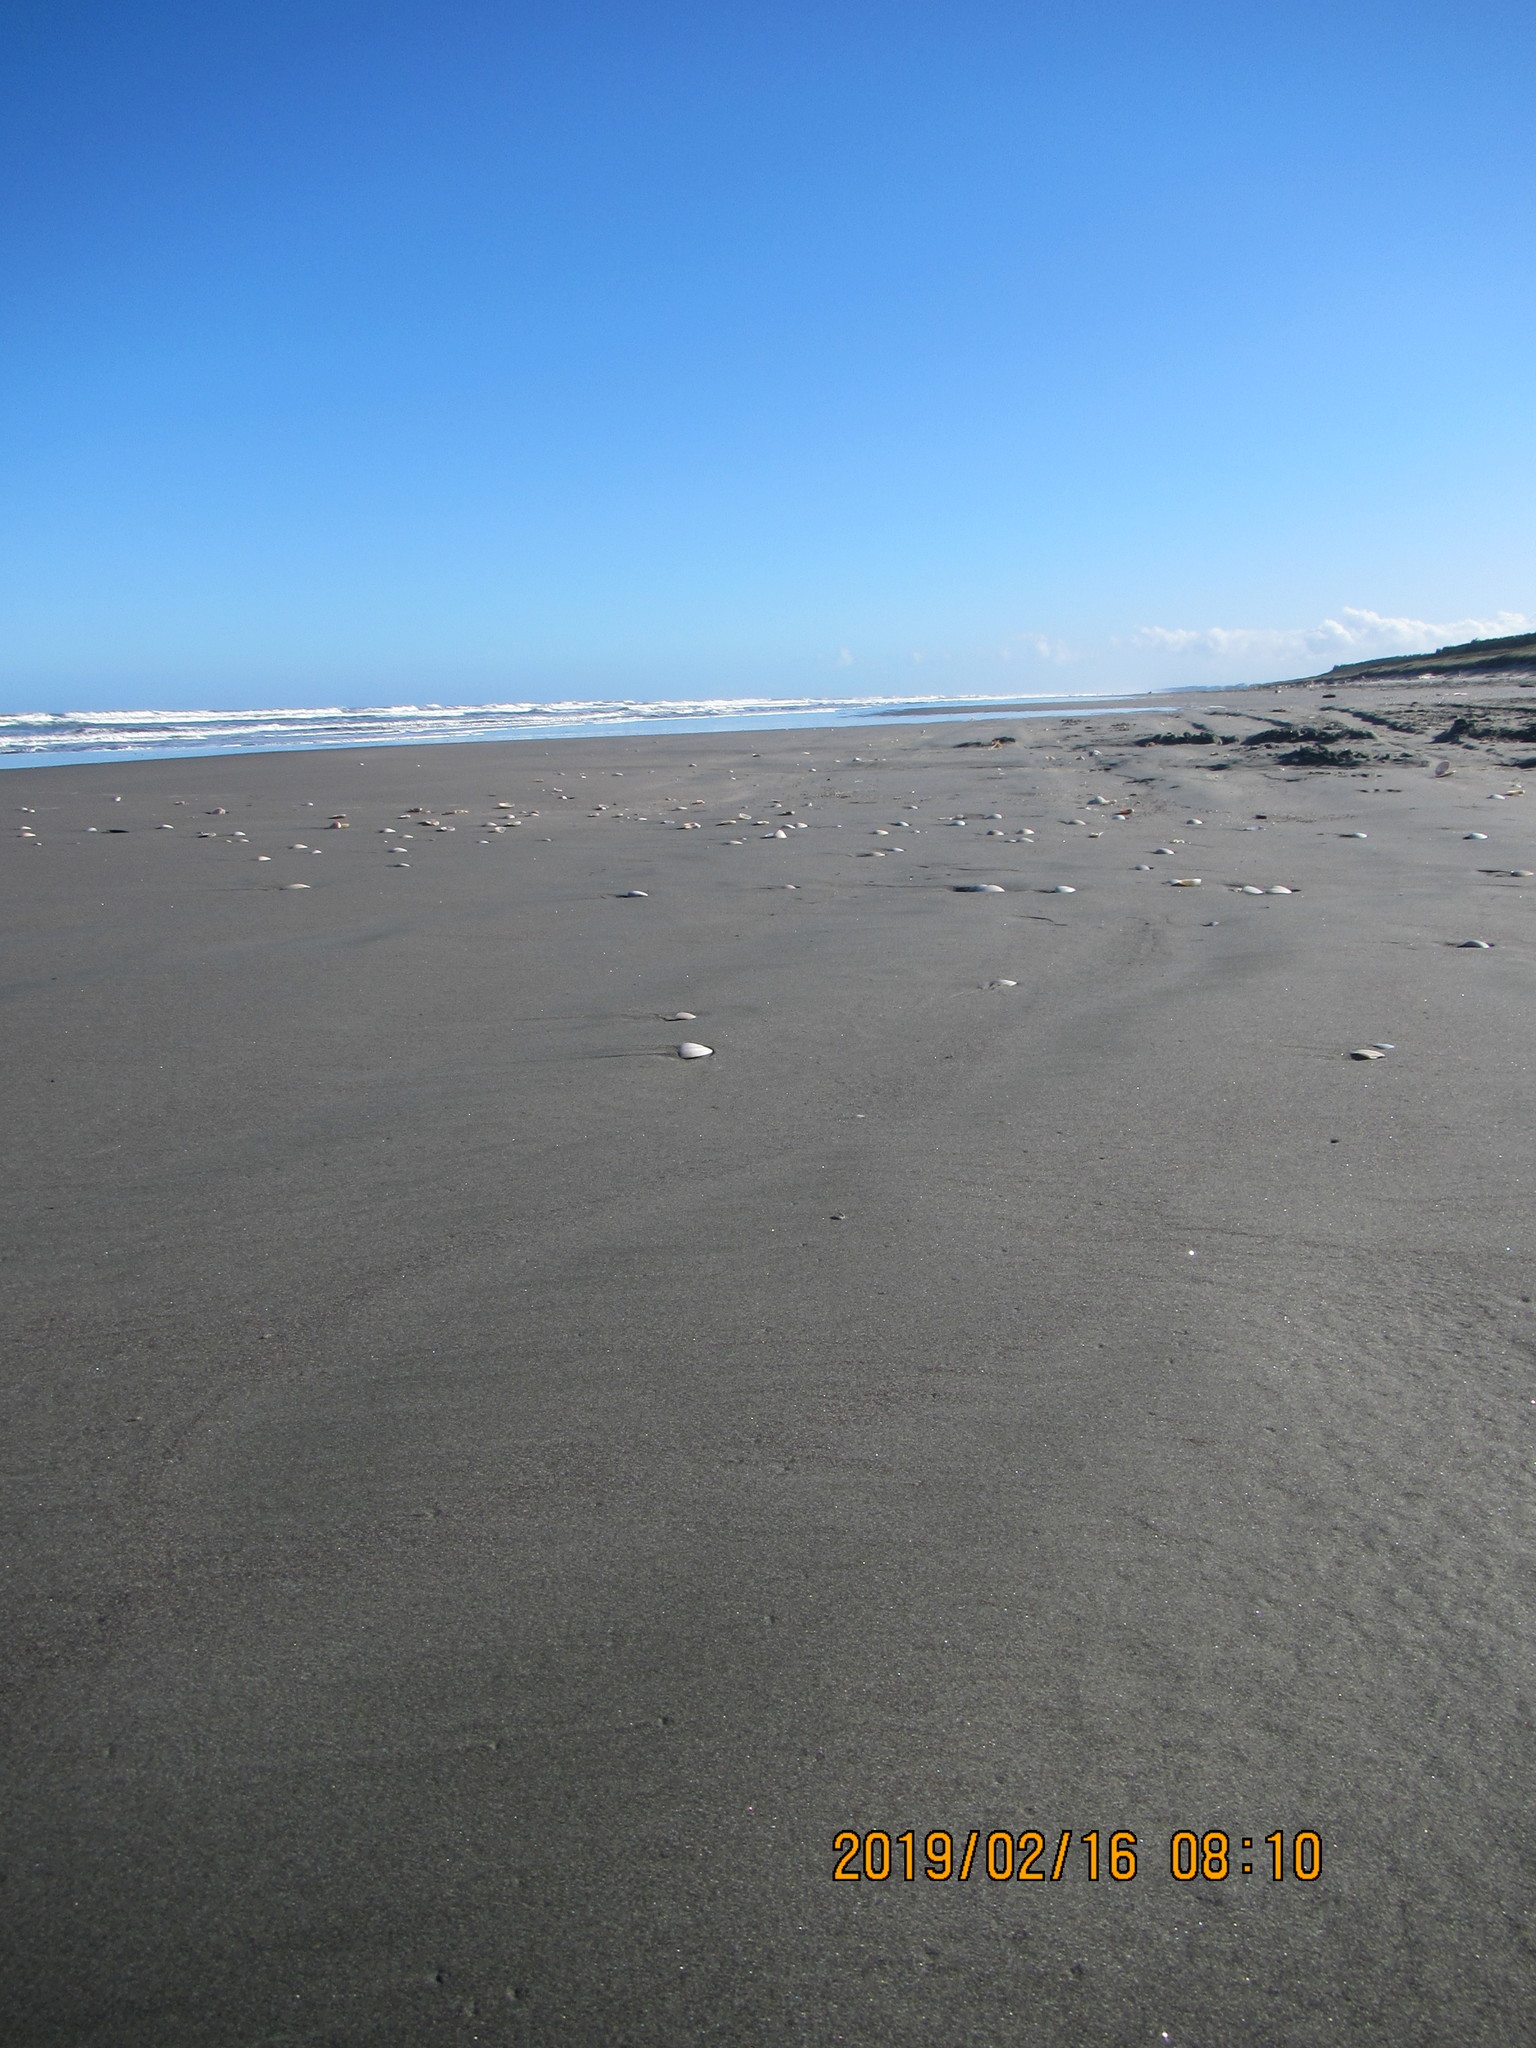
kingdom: Animalia
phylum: Arthropoda
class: Malacostraca
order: Isopoda
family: Scyphacidae
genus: Scyphax
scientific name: Scyphax ornatus
